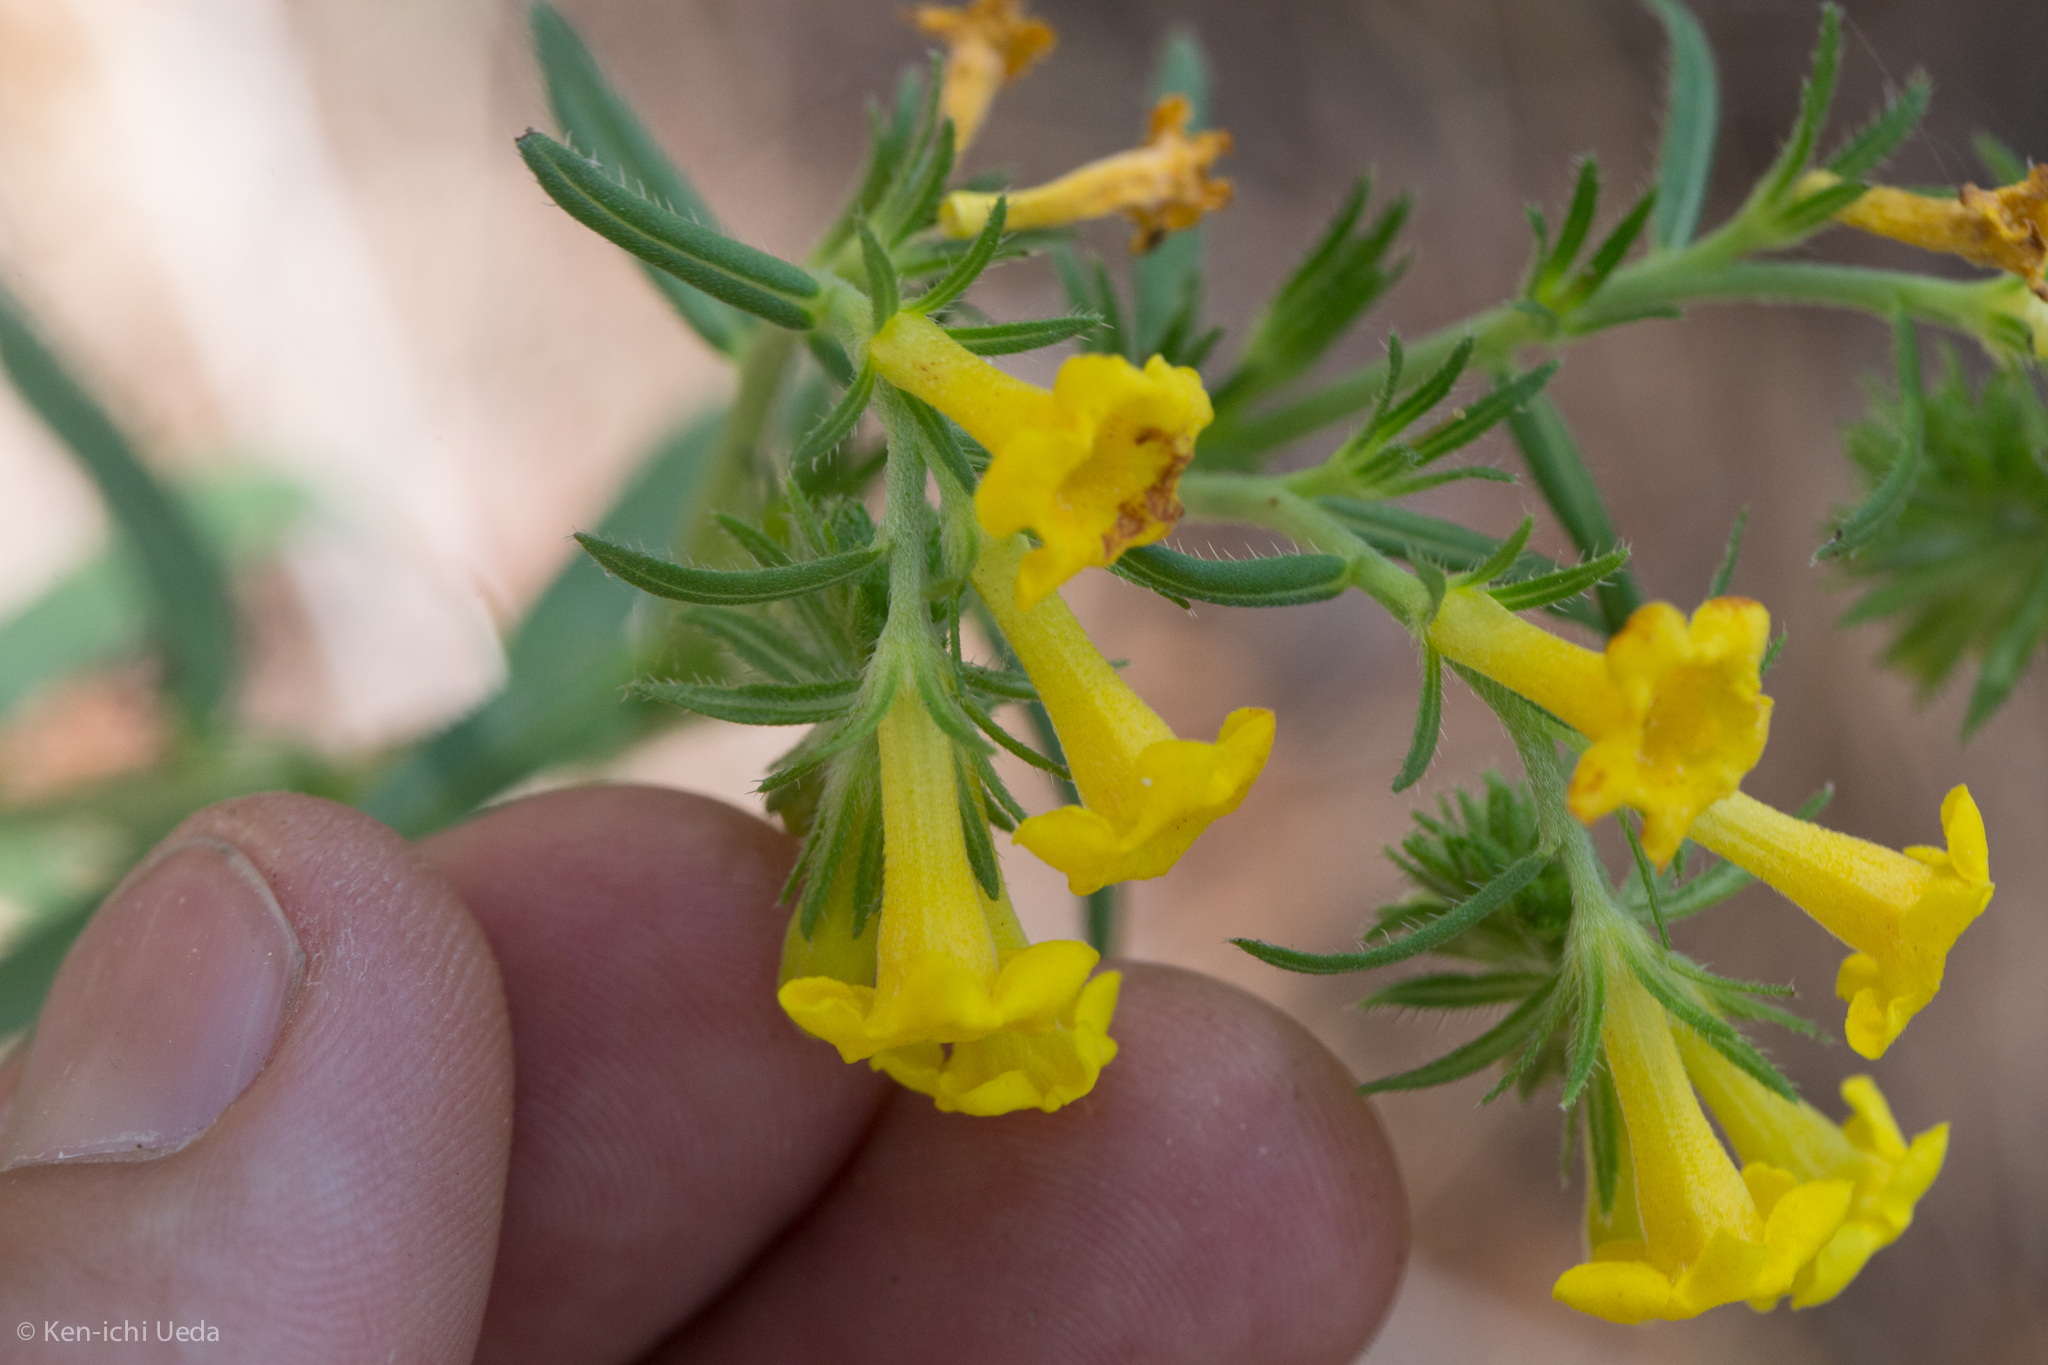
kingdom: Plantae
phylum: Tracheophyta
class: Magnoliopsida
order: Boraginales
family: Boraginaceae
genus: Lithospermum
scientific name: Lithospermum multiflorum
